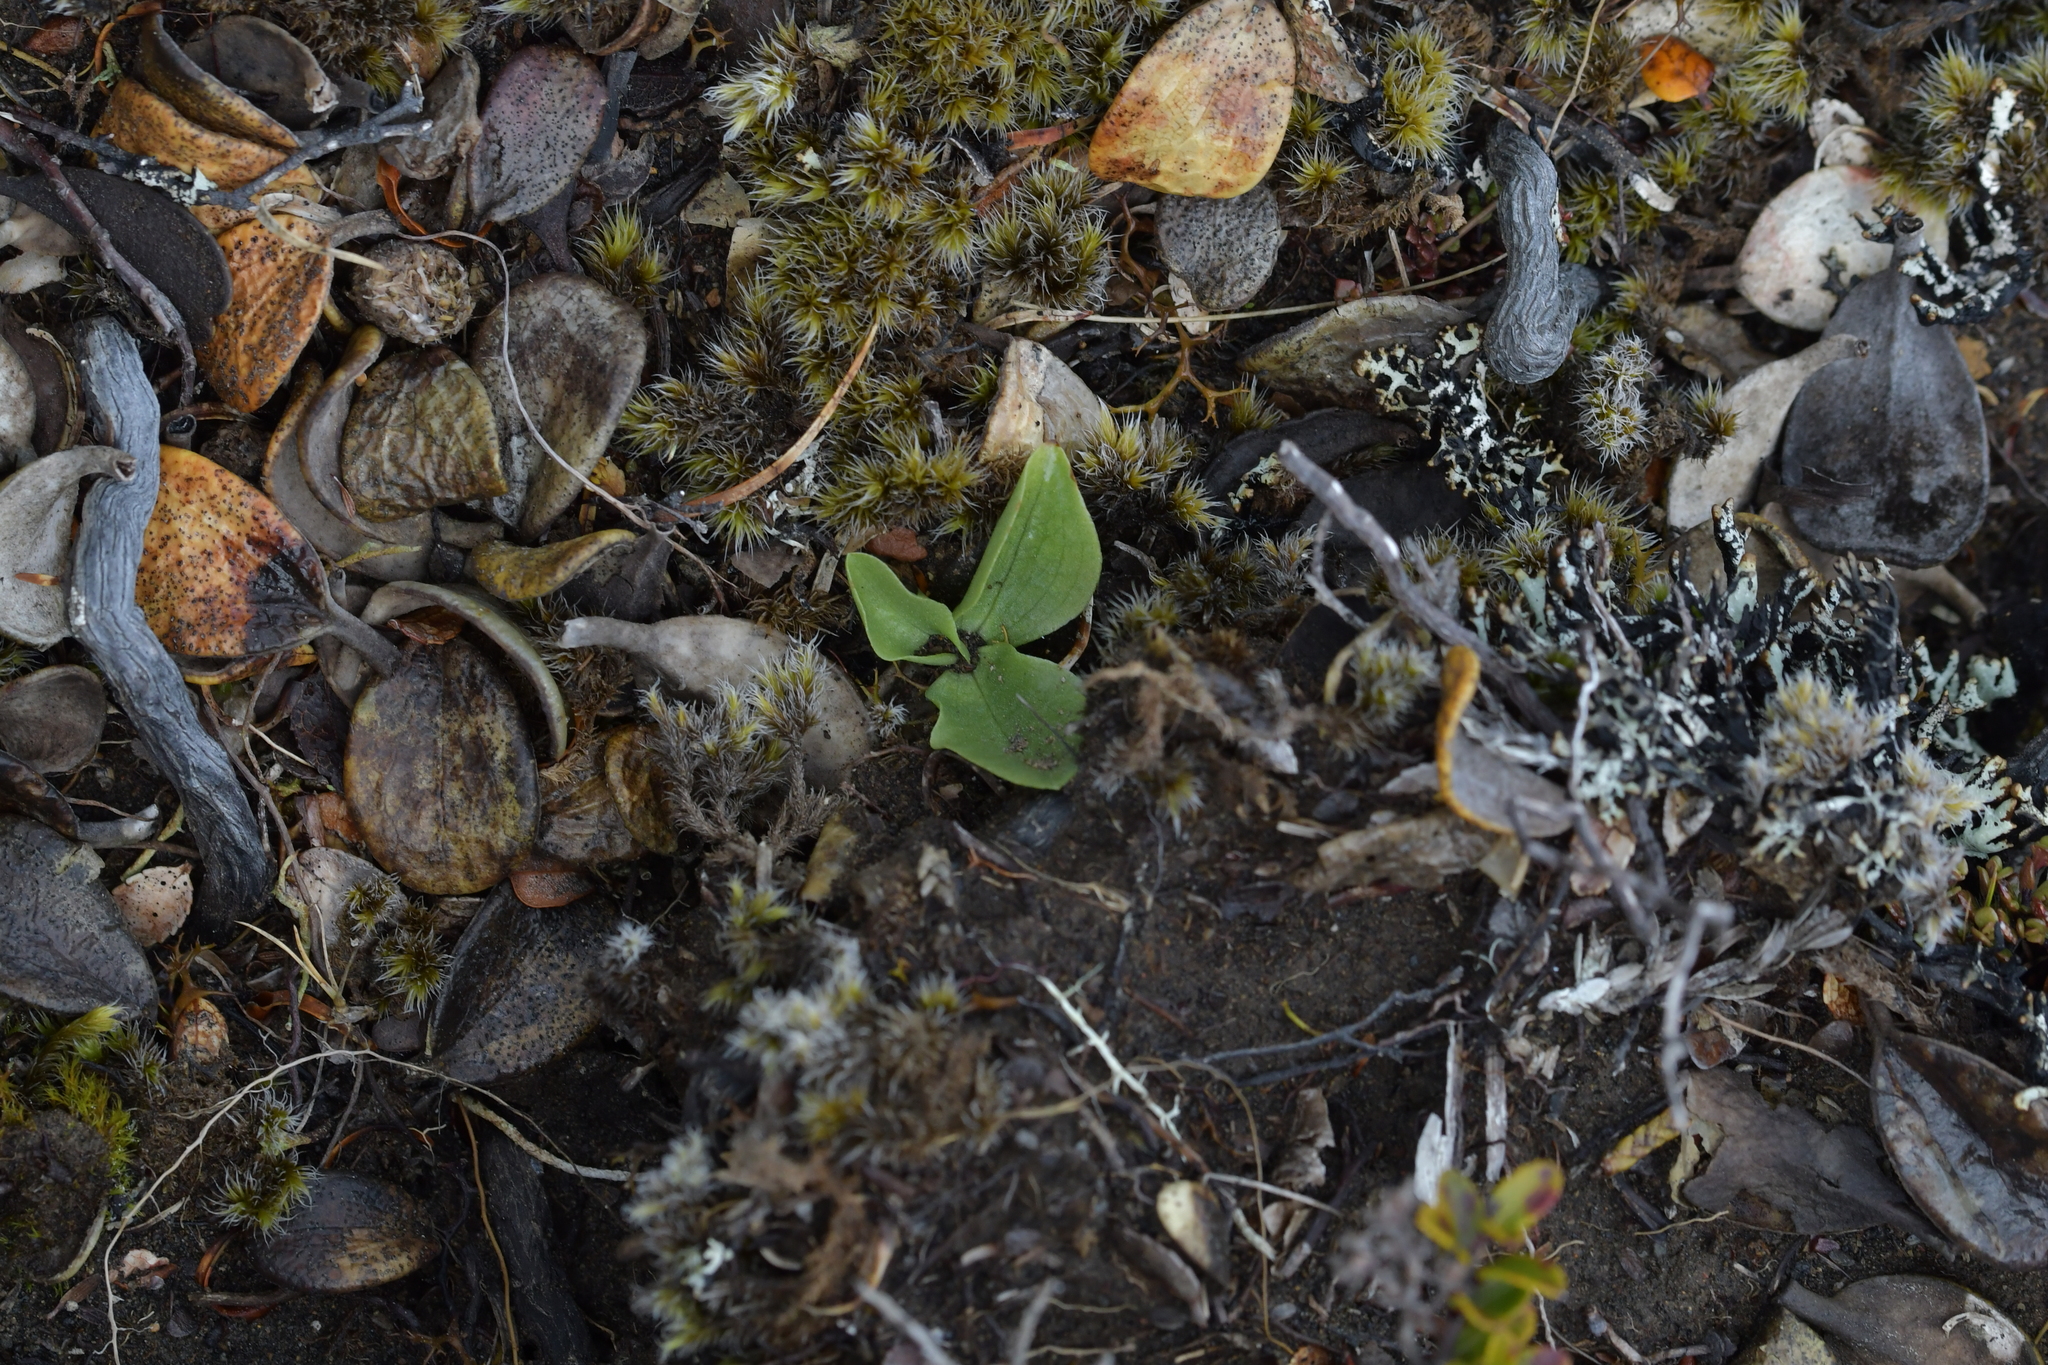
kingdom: Plantae
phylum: Tracheophyta
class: Liliopsida
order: Asparagales
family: Orchidaceae
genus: Pterostylis
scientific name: Pterostylis humilis
